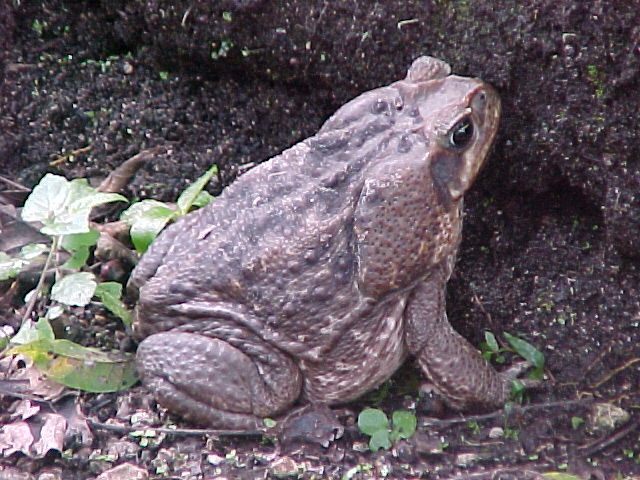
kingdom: Animalia
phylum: Chordata
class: Amphibia
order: Anura
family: Bufonidae
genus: Rhinella
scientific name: Rhinella horribilis
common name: Mesoamerican cane toad
